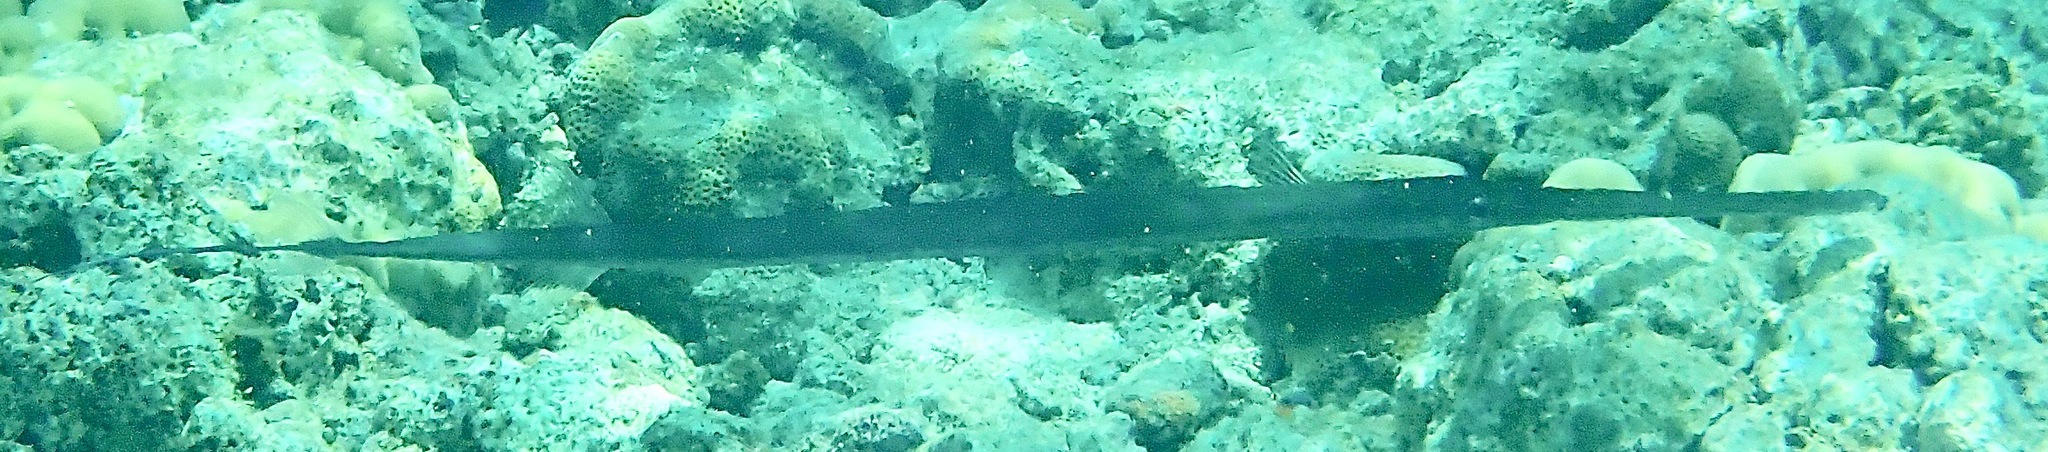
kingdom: Animalia
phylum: Chordata
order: Syngnathiformes
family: Fistulariidae
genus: Fistularia
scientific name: Fistularia commersonii
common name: Bluespotted cornetfish
